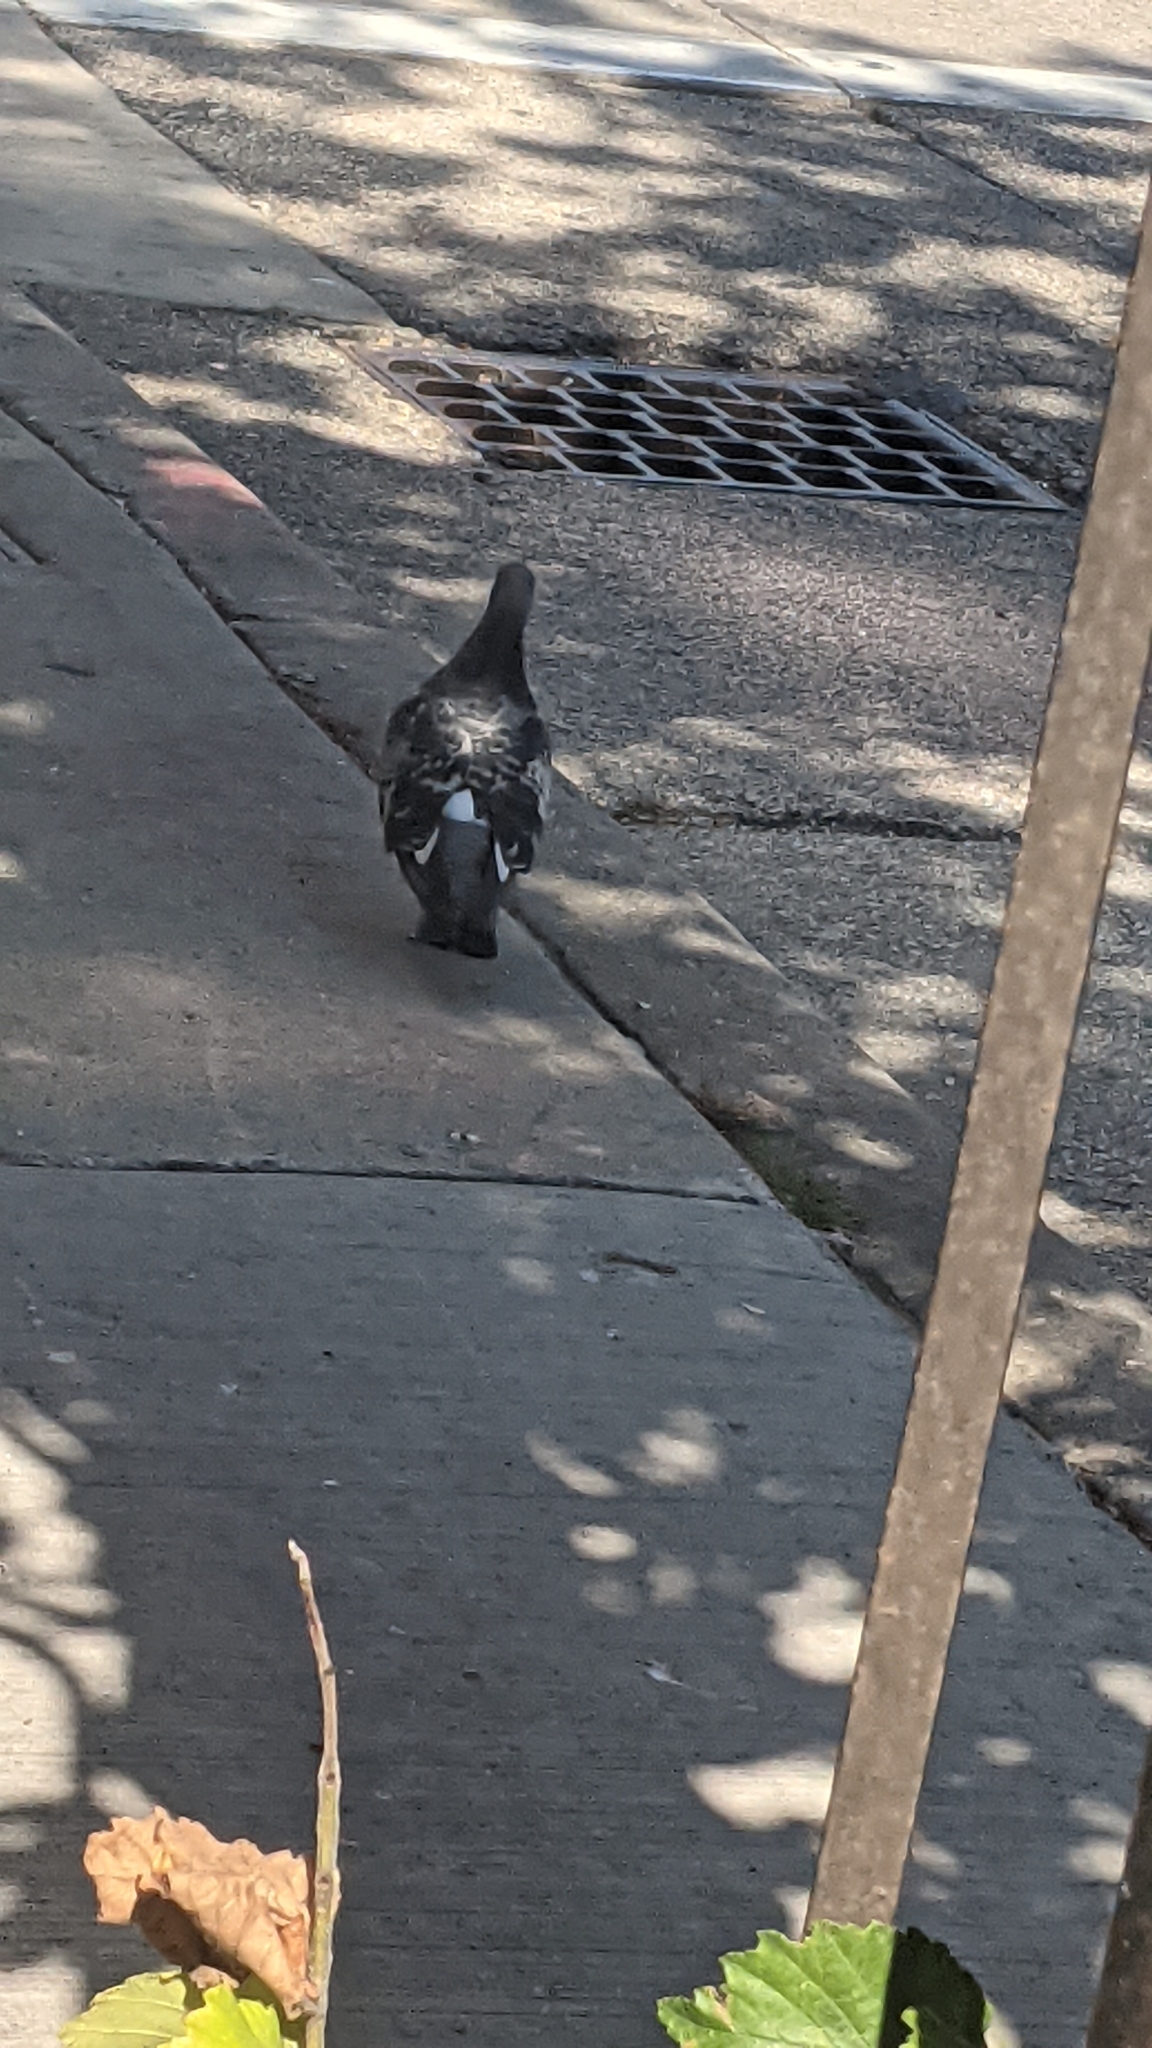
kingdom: Animalia
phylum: Chordata
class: Aves
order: Columbiformes
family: Columbidae
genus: Columba
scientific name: Columba livia
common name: Rock pigeon
